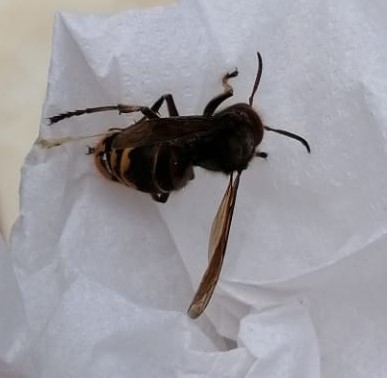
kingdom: Animalia
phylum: Arthropoda
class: Insecta
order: Hymenoptera
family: Vespidae
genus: Vespa
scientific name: Vespa crabro
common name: Hornet
